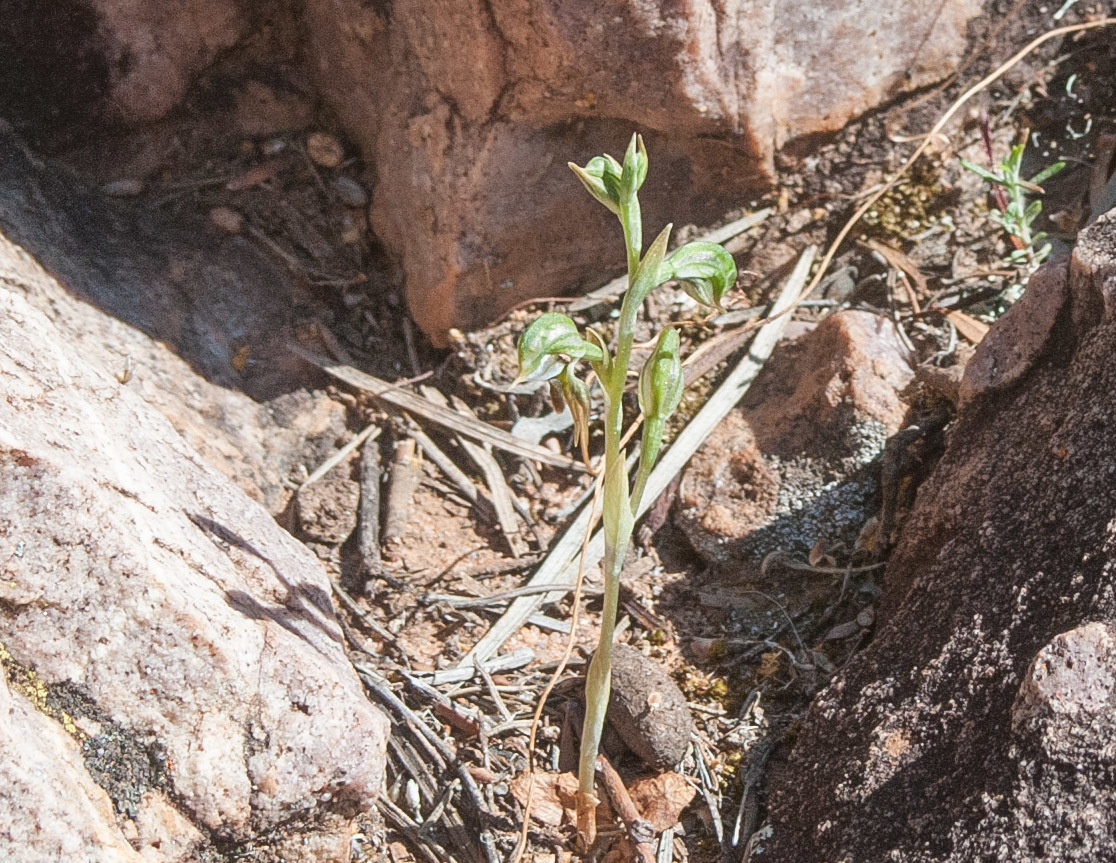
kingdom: Plantae
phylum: Tracheophyta
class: Liliopsida
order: Asparagales
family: Orchidaceae
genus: Pterostylis
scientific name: Pterostylis pusilla
